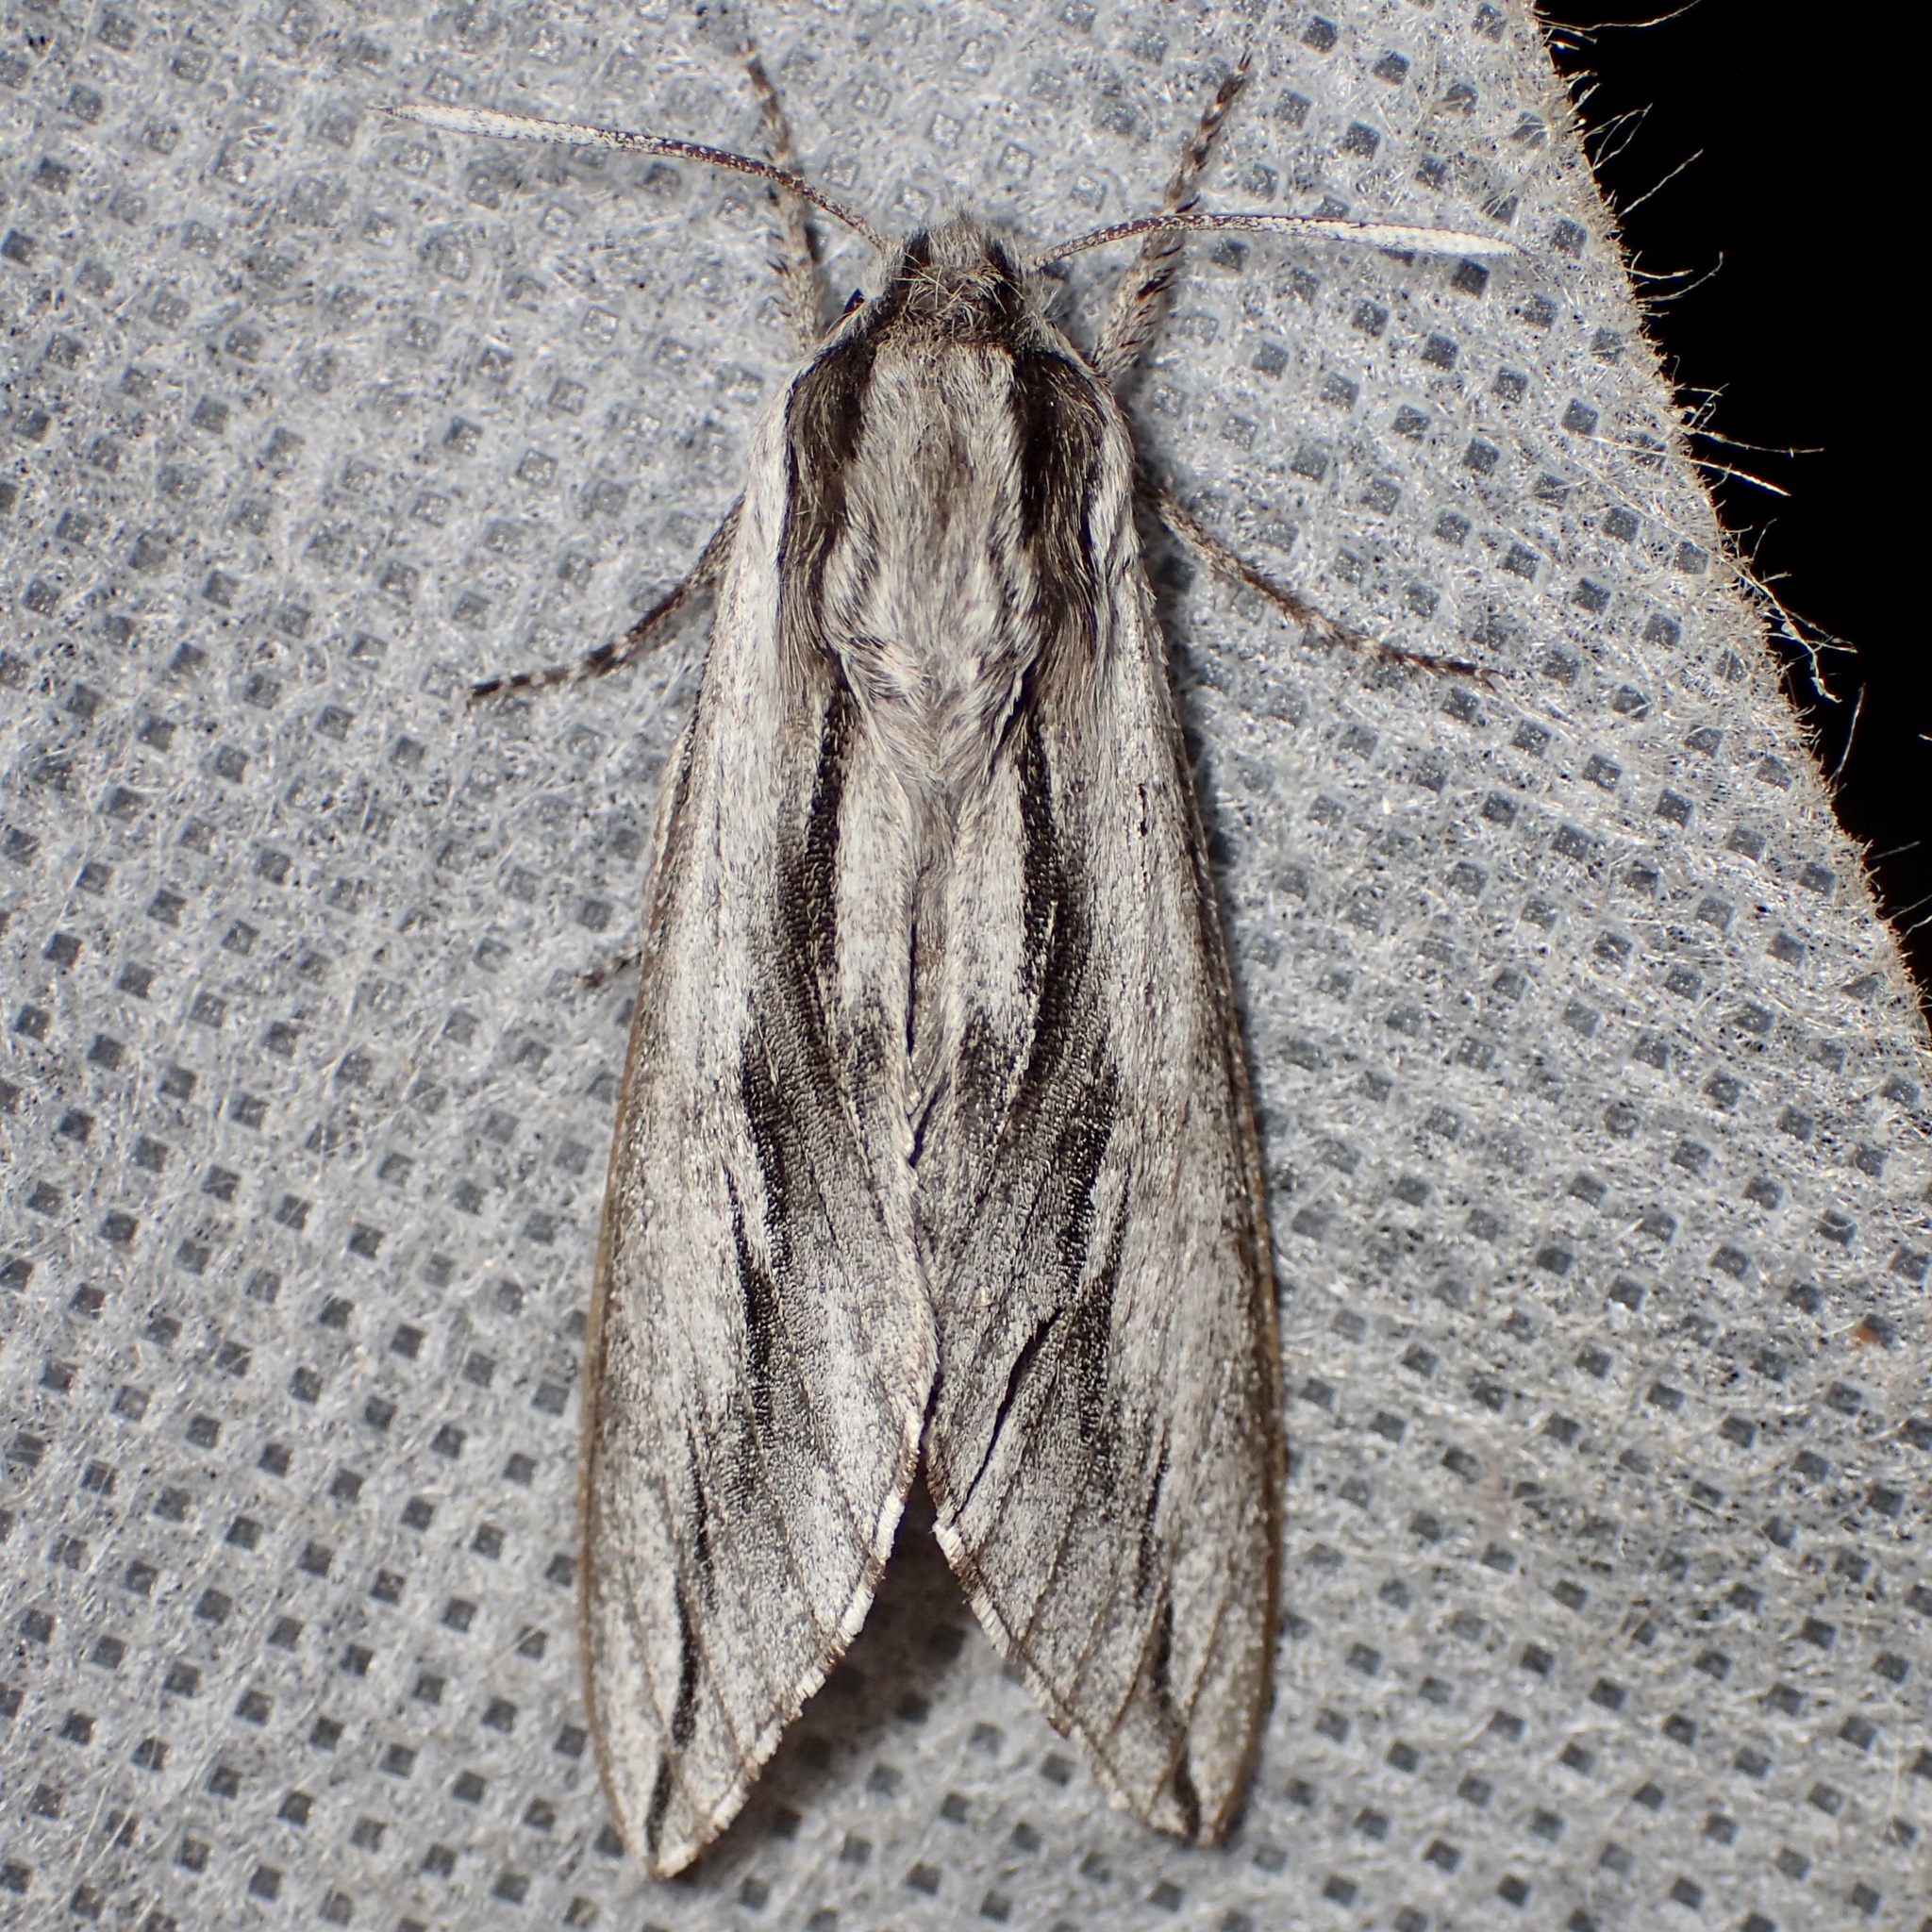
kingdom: Animalia
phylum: Arthropoda
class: Insecta
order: Lepidoptera
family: Sphingidae
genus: Sphinx
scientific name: Sphinx dollii
